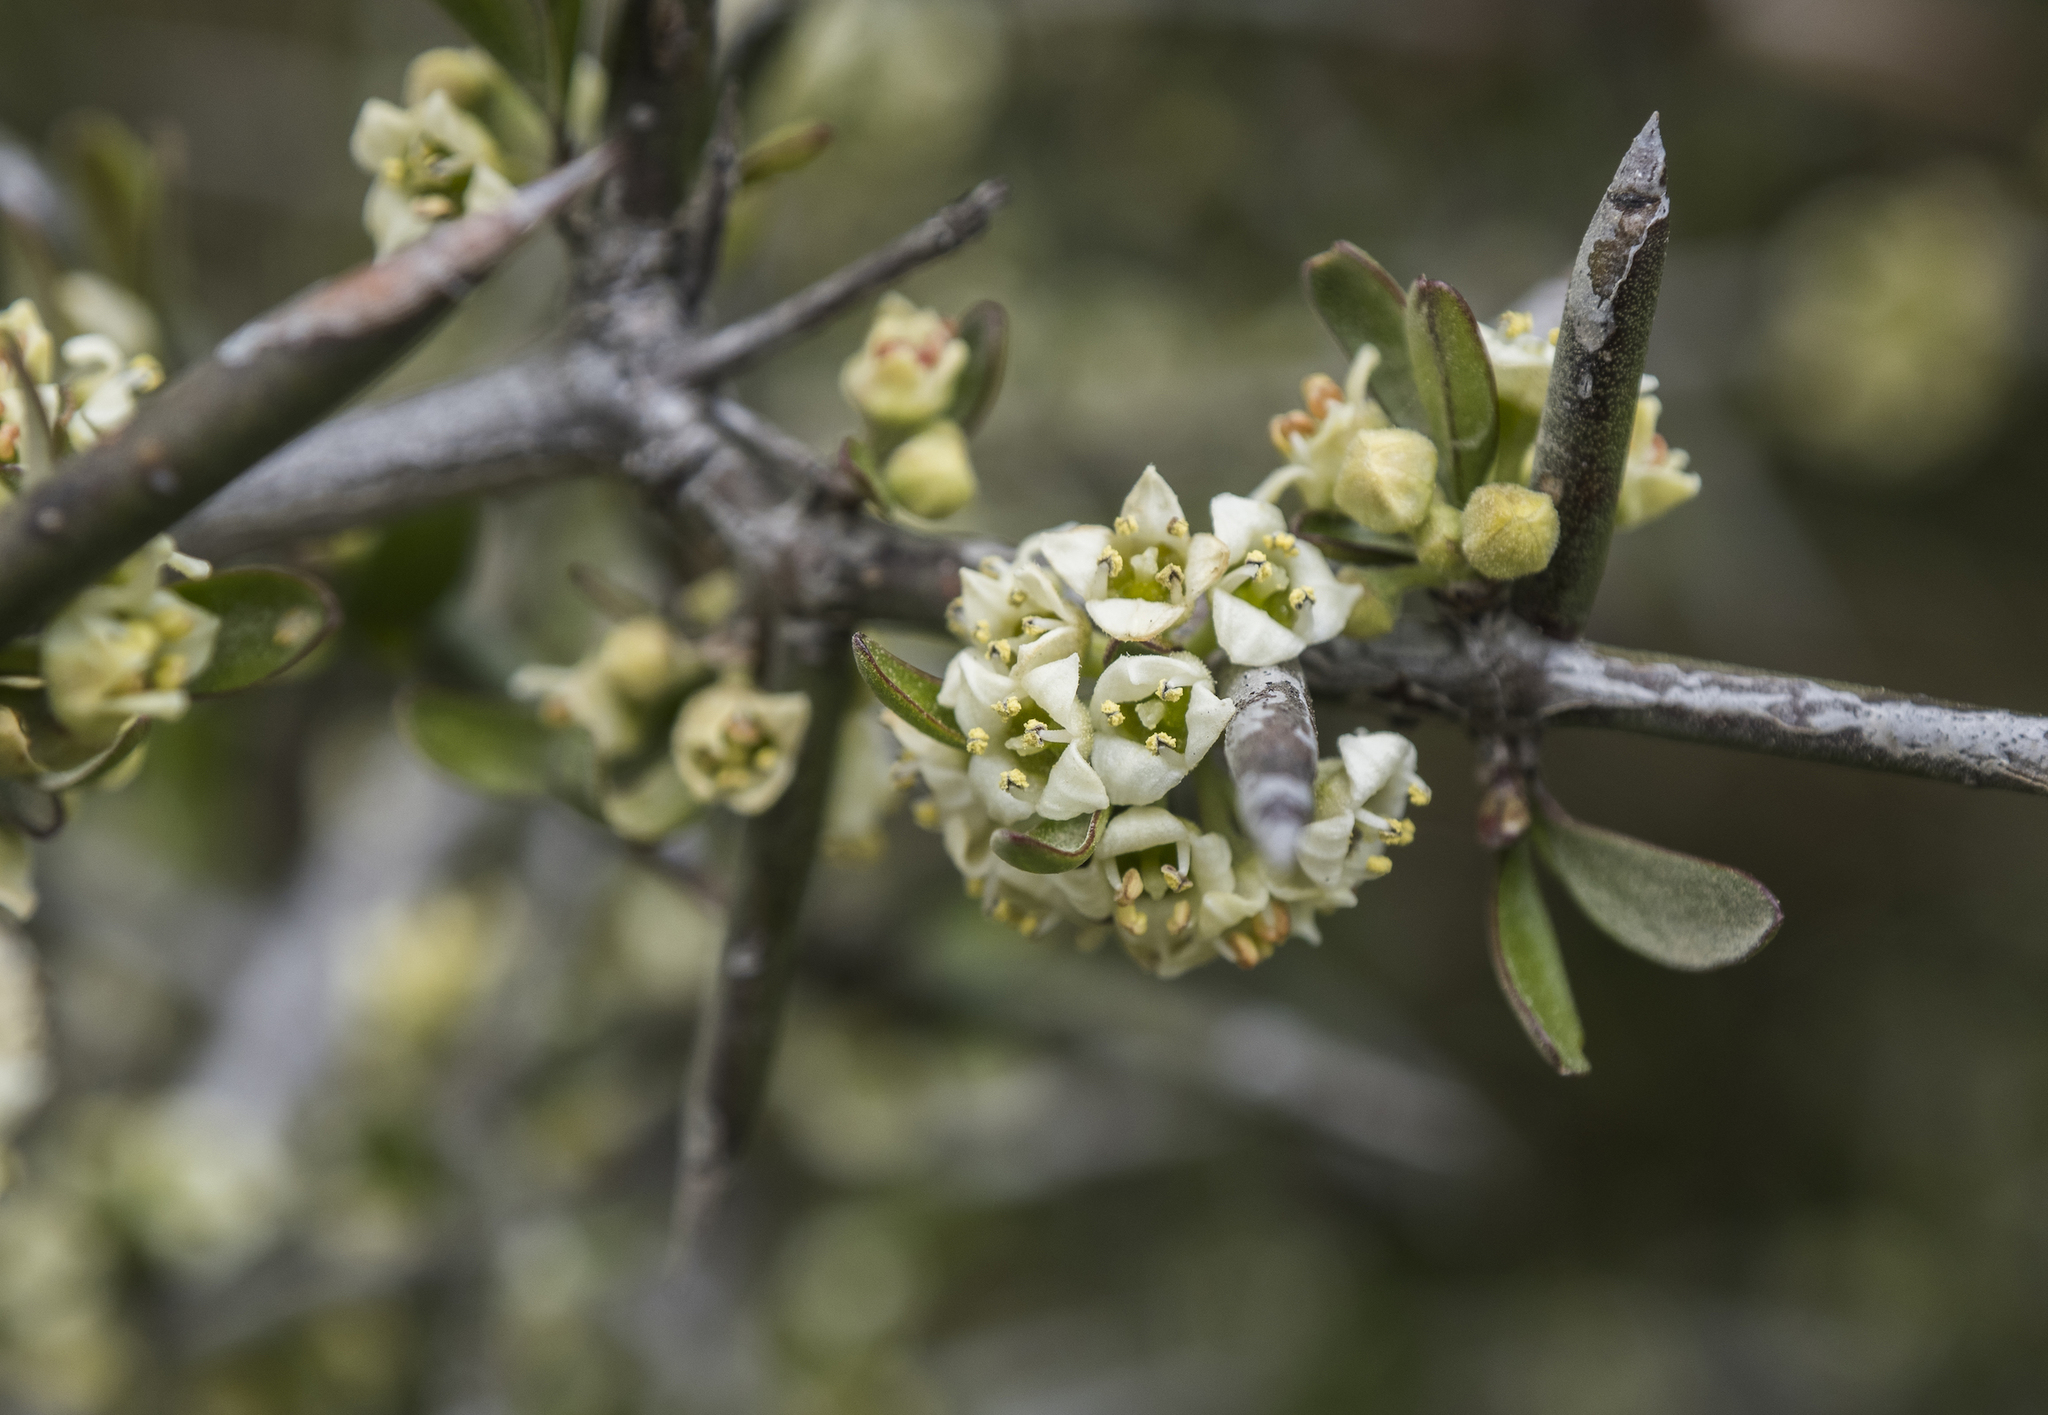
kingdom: Plantae
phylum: Tracheophyta
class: Magnoliopsida
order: Rosales
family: Rhamnaceae
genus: Discaria
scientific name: Discaria toumatou
